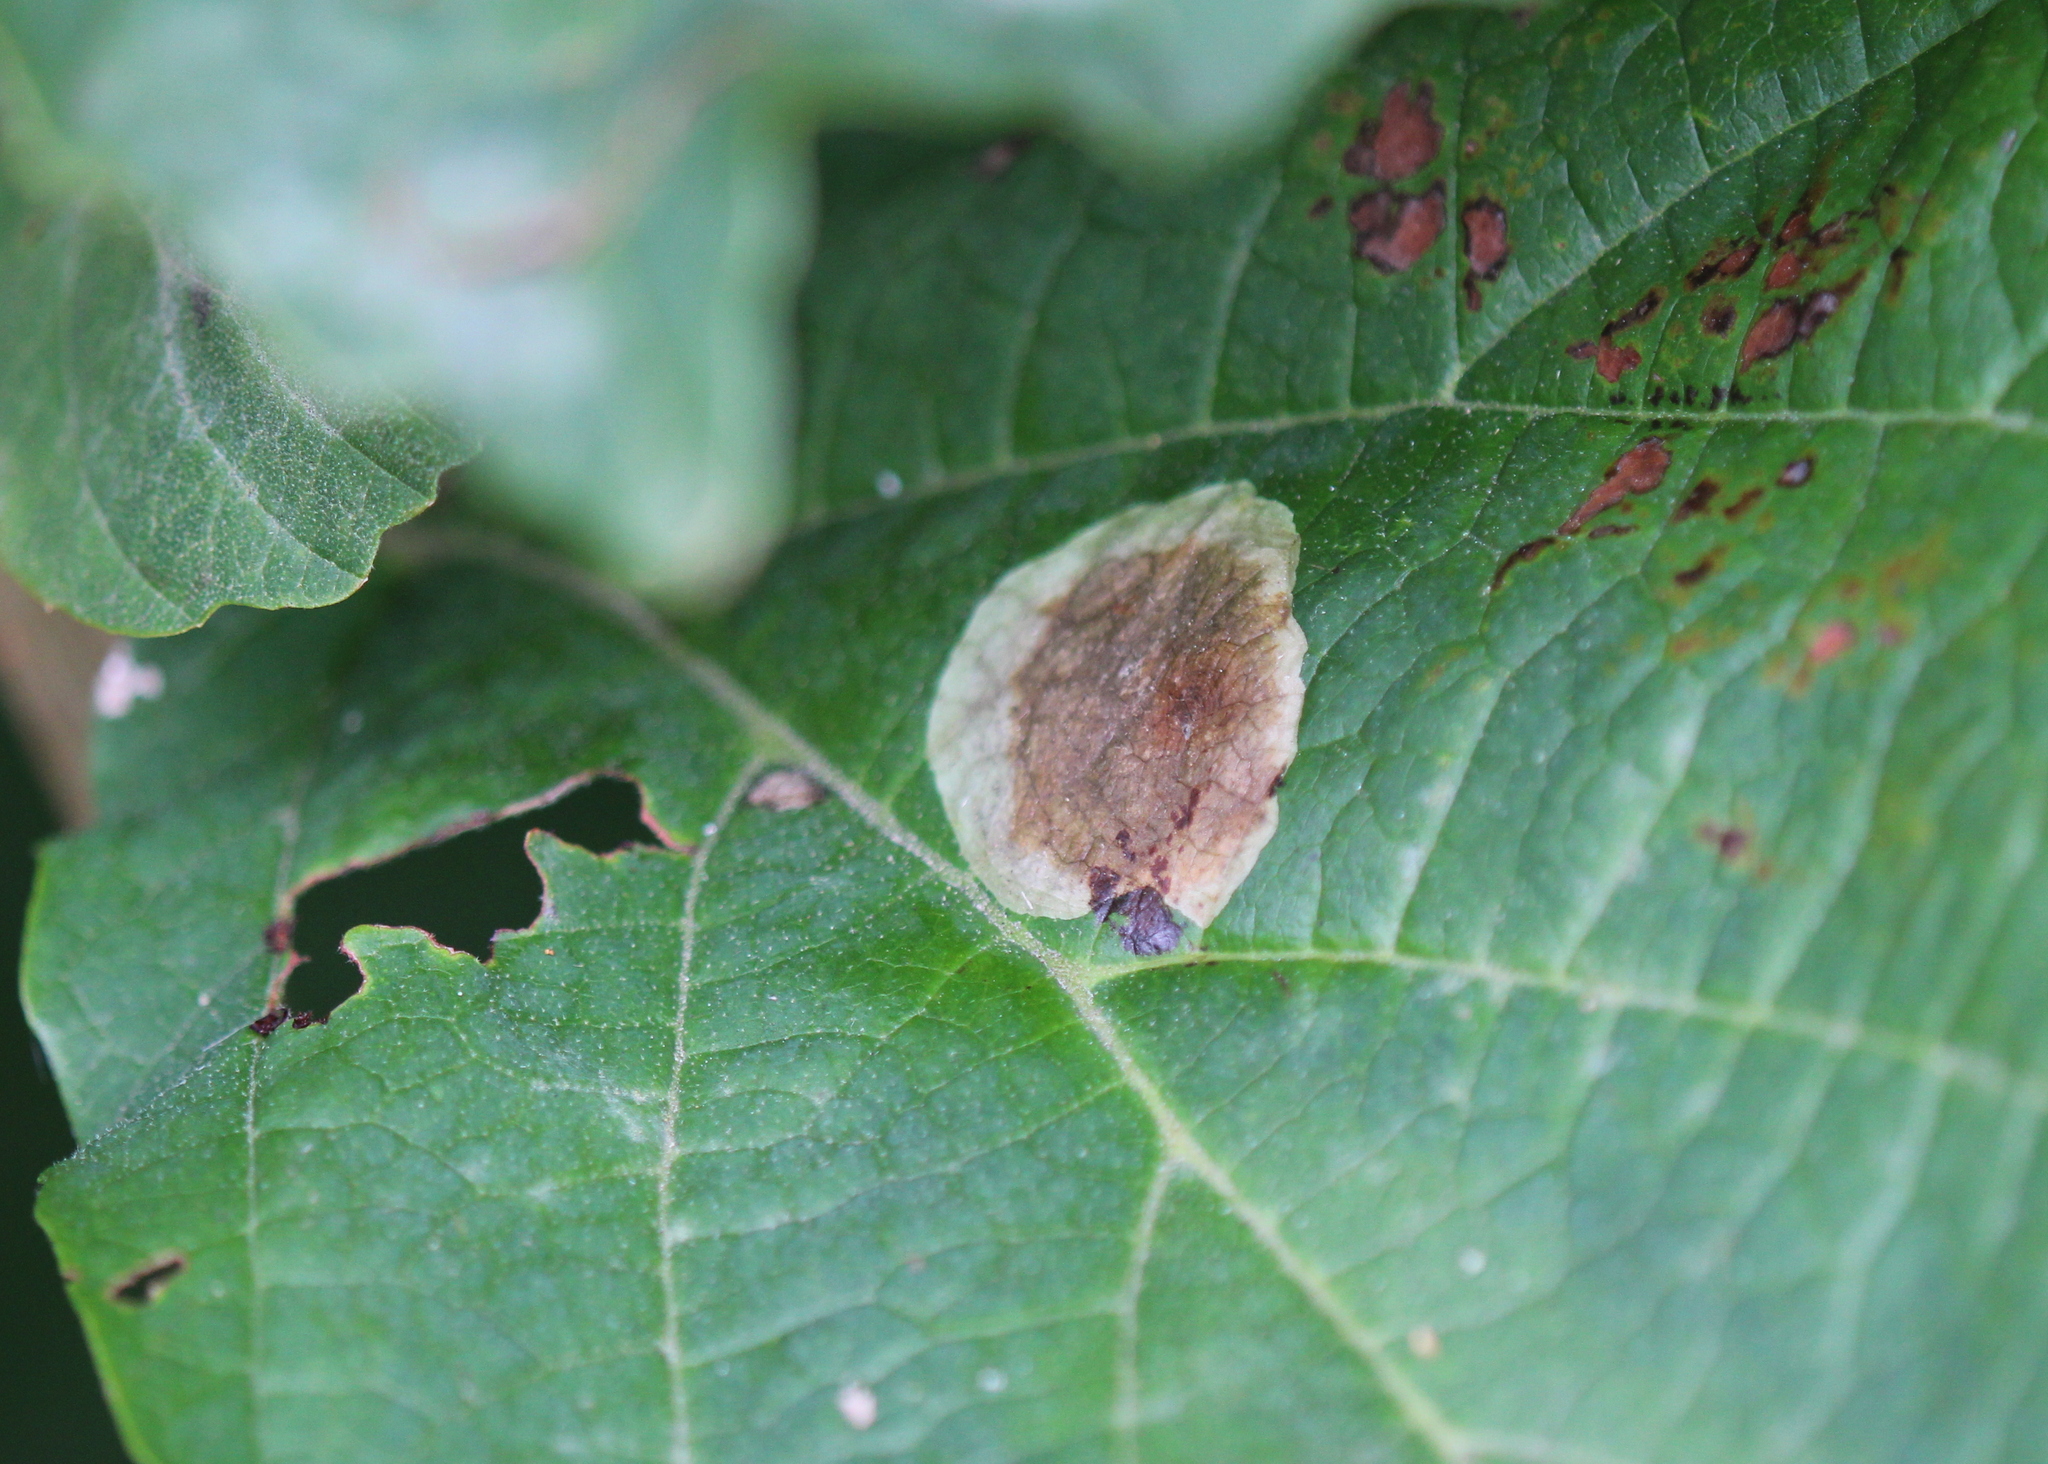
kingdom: Animalia
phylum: Arthropoda
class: Insecta
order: Lepidoptera
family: Gracillariidae
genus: Cameraria
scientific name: Cameraria hamameliella
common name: Witchhazel leafminer
